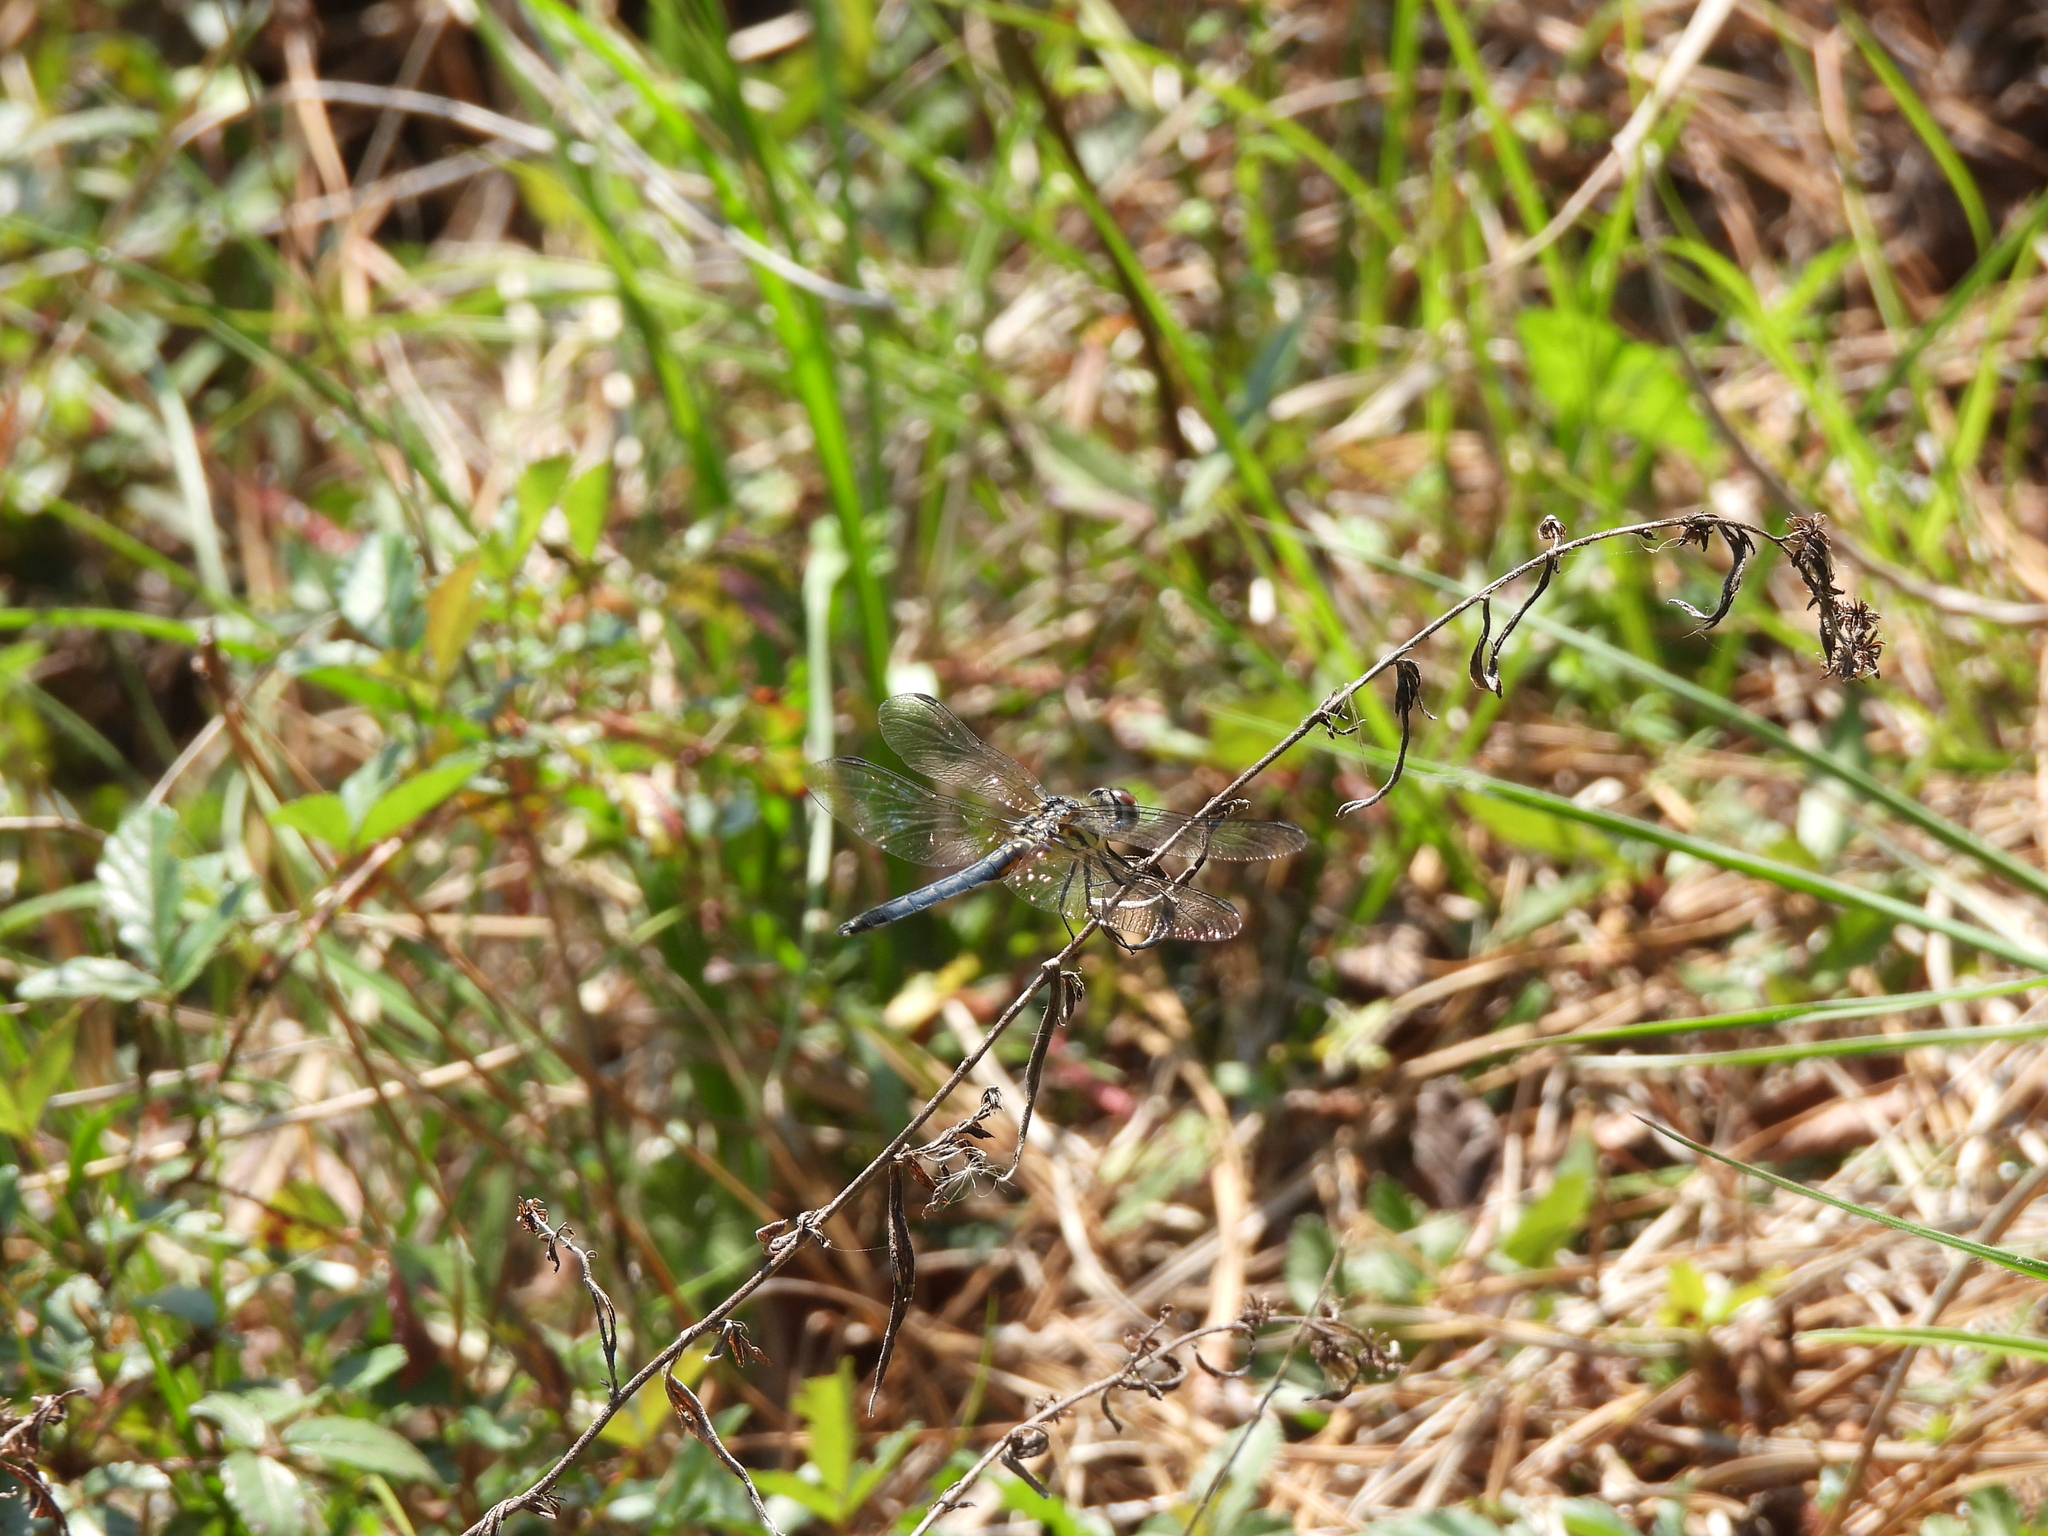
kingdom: Animalia
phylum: Arthropoda
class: Insecta
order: Odonata
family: Libellulidae
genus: Pachydiplax
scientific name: Pachydiplax longipennis
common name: Blue dasher
